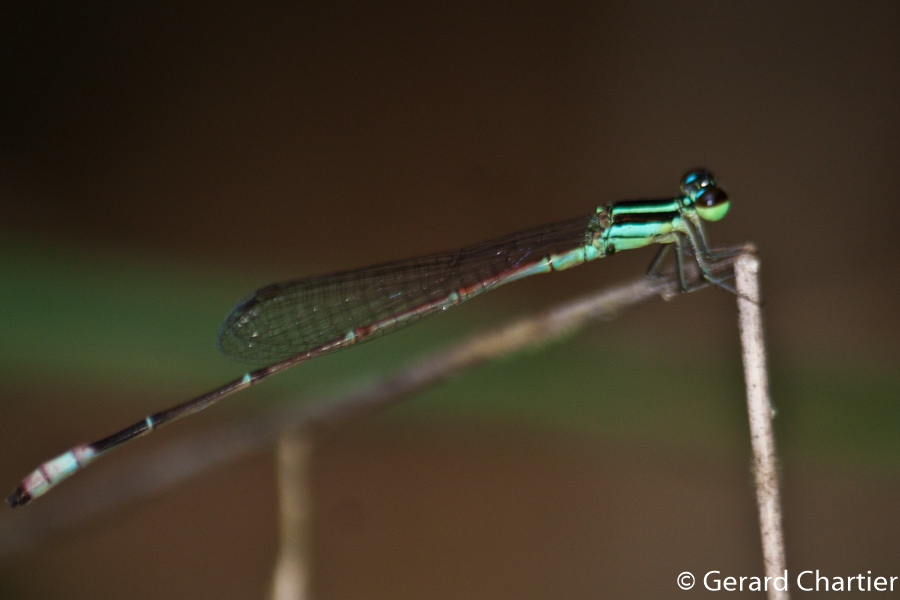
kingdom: Animalia
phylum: Arthropoda
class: Insecta
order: Odonata
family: Coenagrionidae
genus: Argiocnemis
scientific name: Argiocnemis rubescens
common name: Red-tipped shadefly
